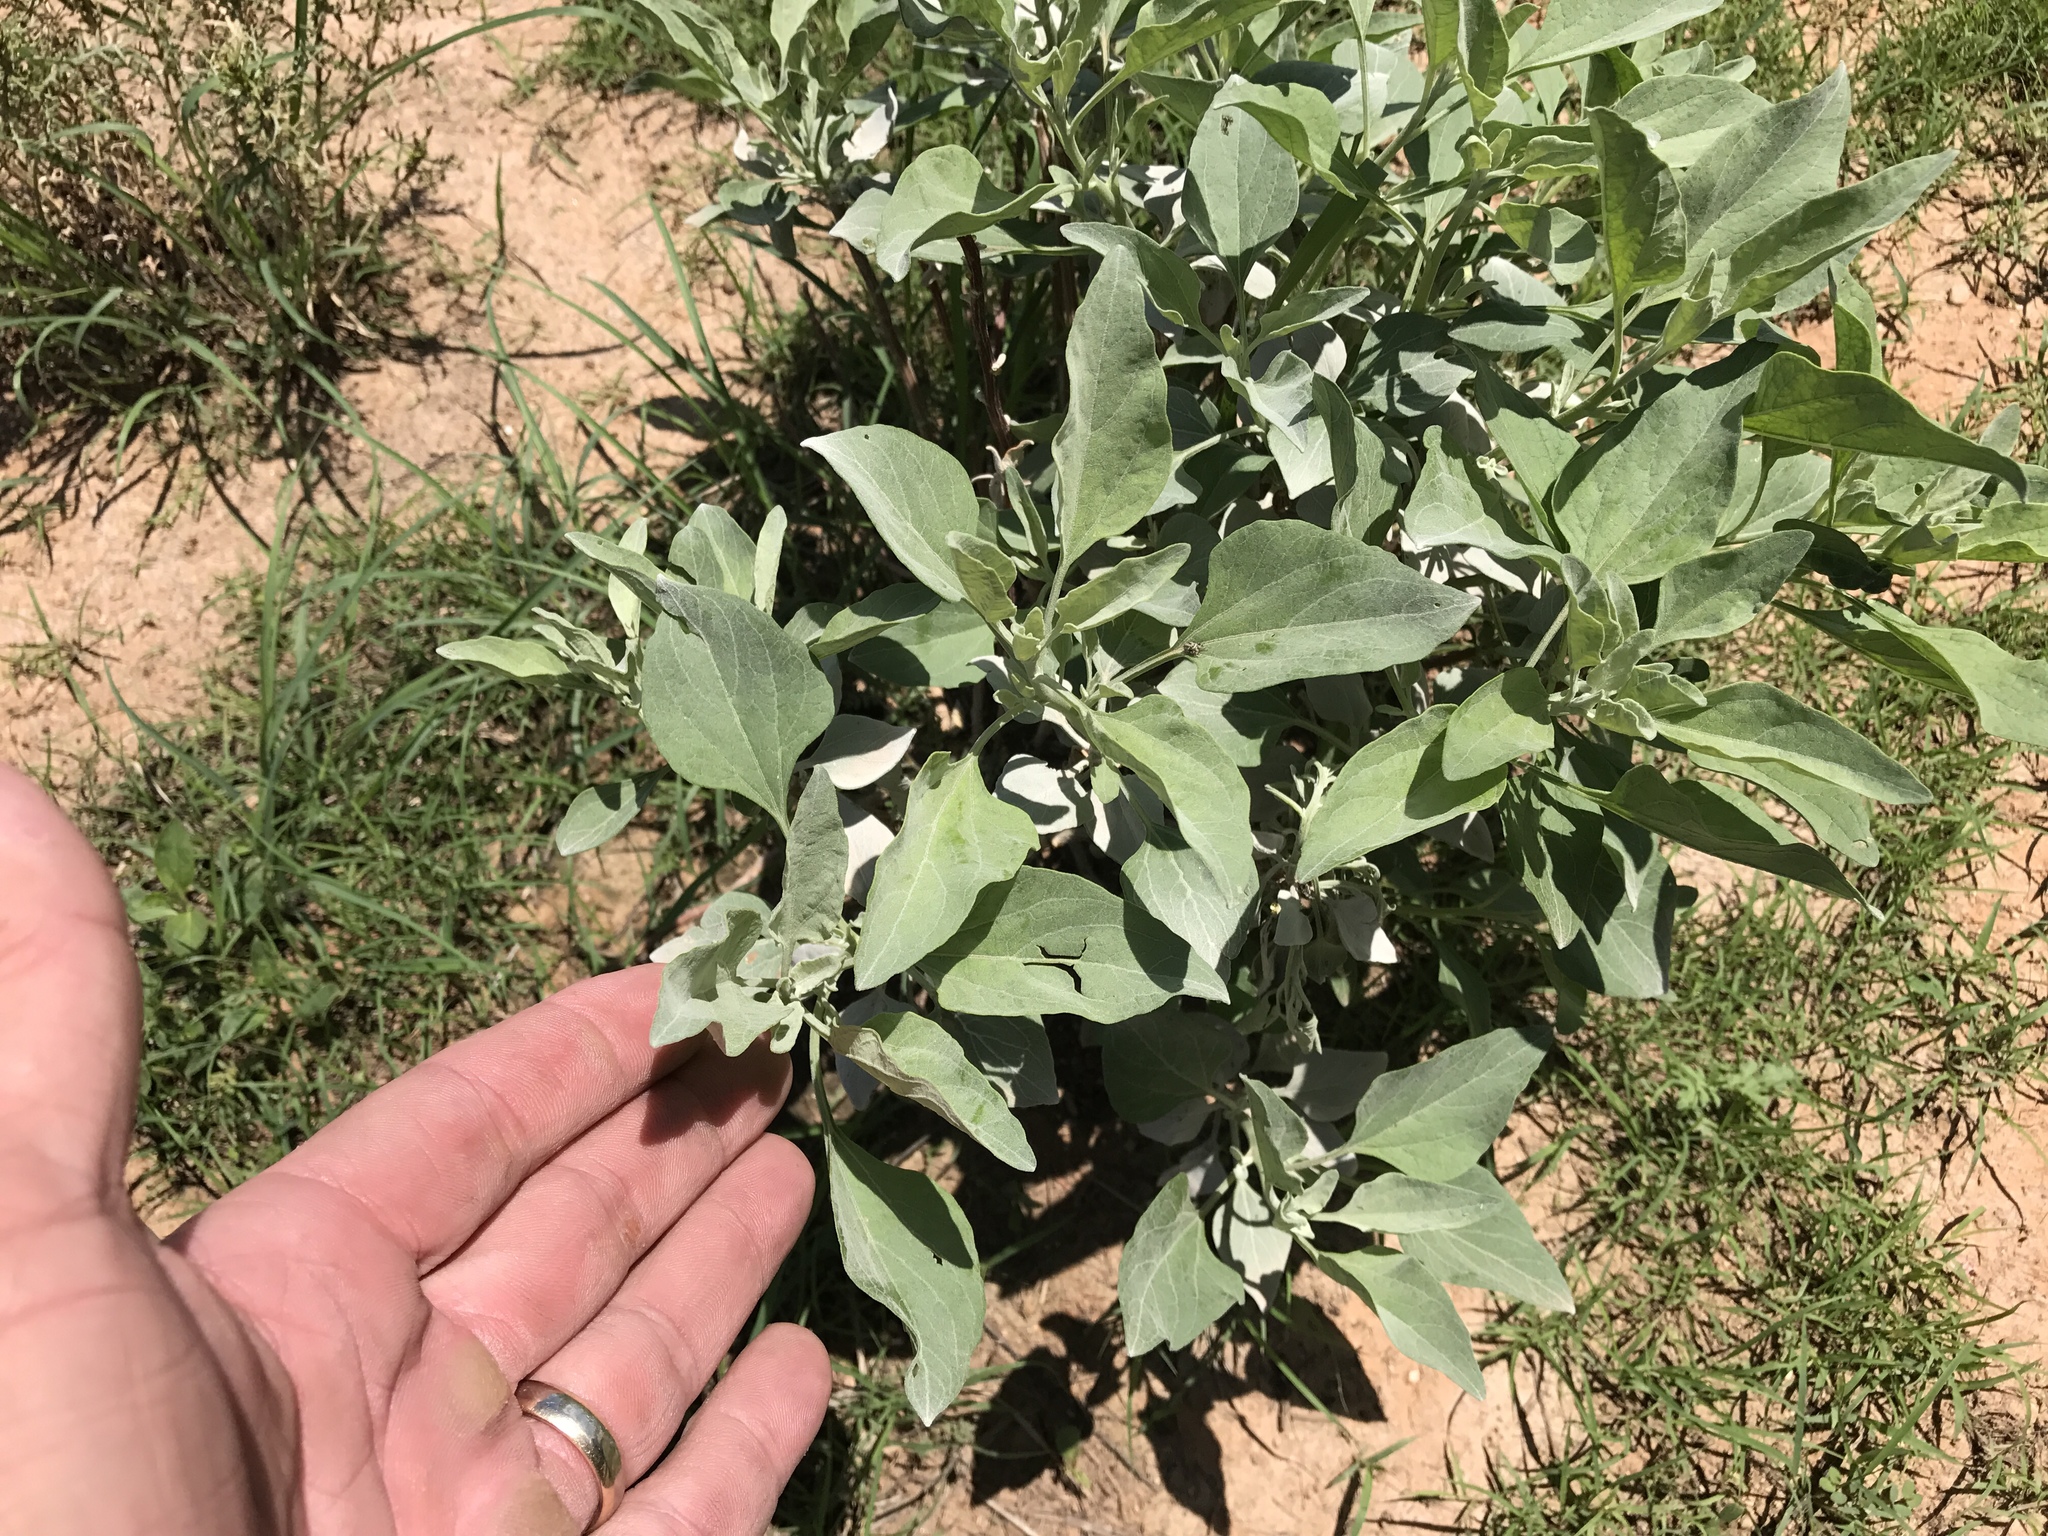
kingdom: Plantae
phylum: Tracheophyta
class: Magnoliopsida
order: Asterales
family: Asteraceae
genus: Encelia
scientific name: Encelia farinosa
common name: Brittlebush
